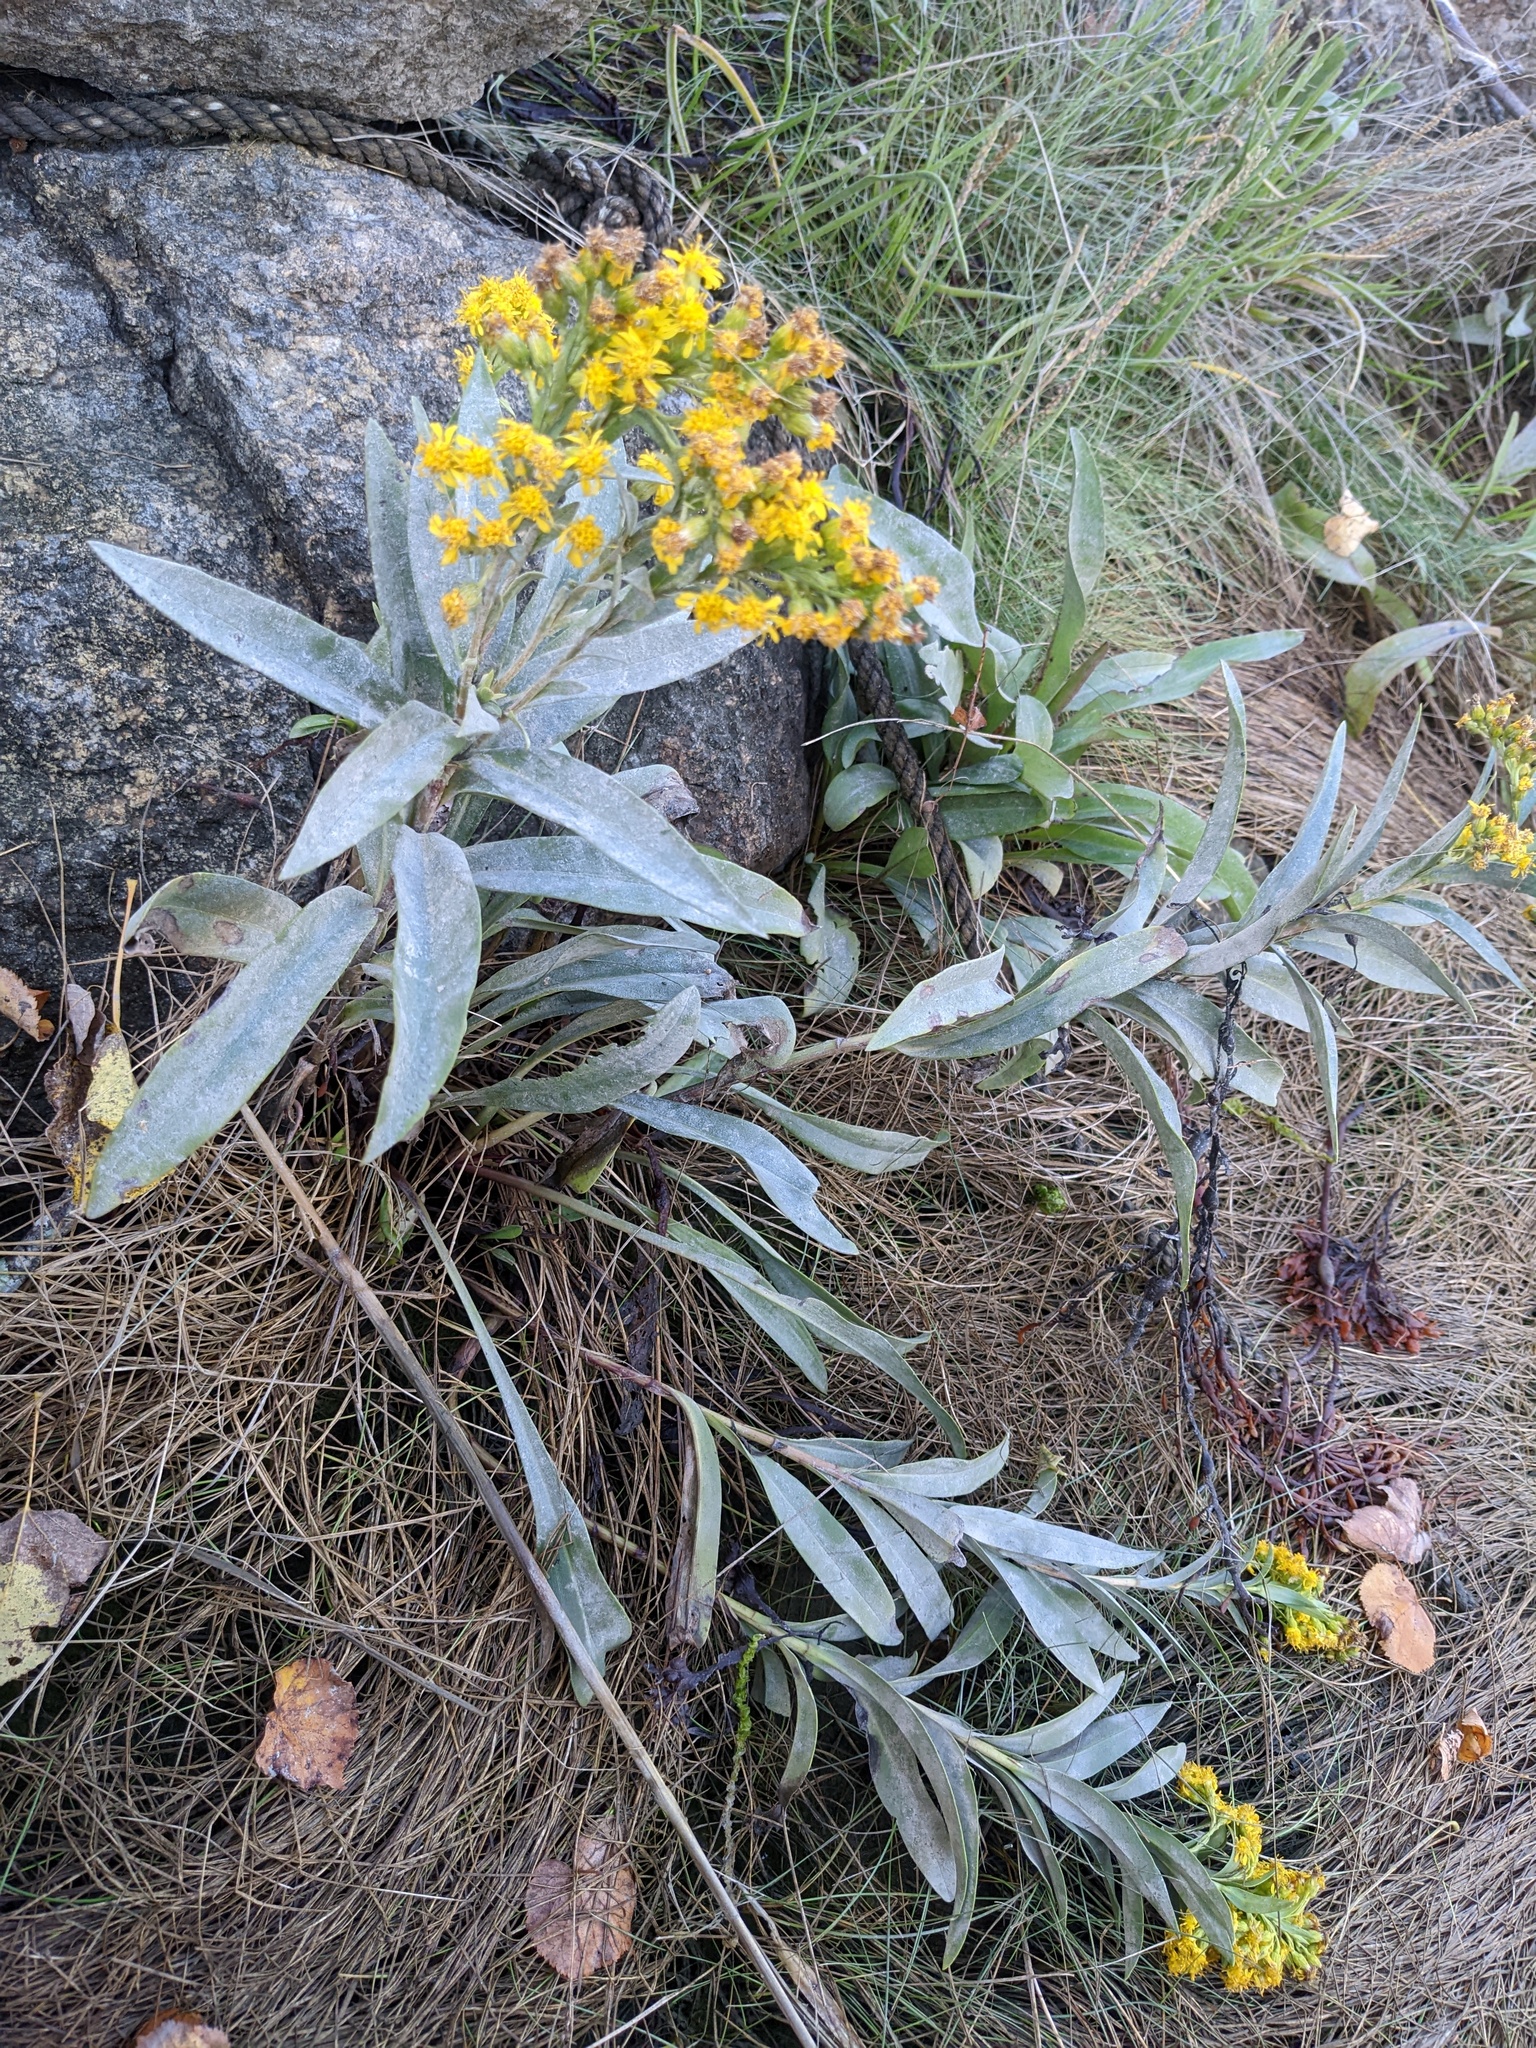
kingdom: Plantae
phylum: Tracheophyta
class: Magnoliopsida
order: Asterales
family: Asteraceae
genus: Solidago
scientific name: Solidago sempervirens
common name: Salt-marsh goldenrod
